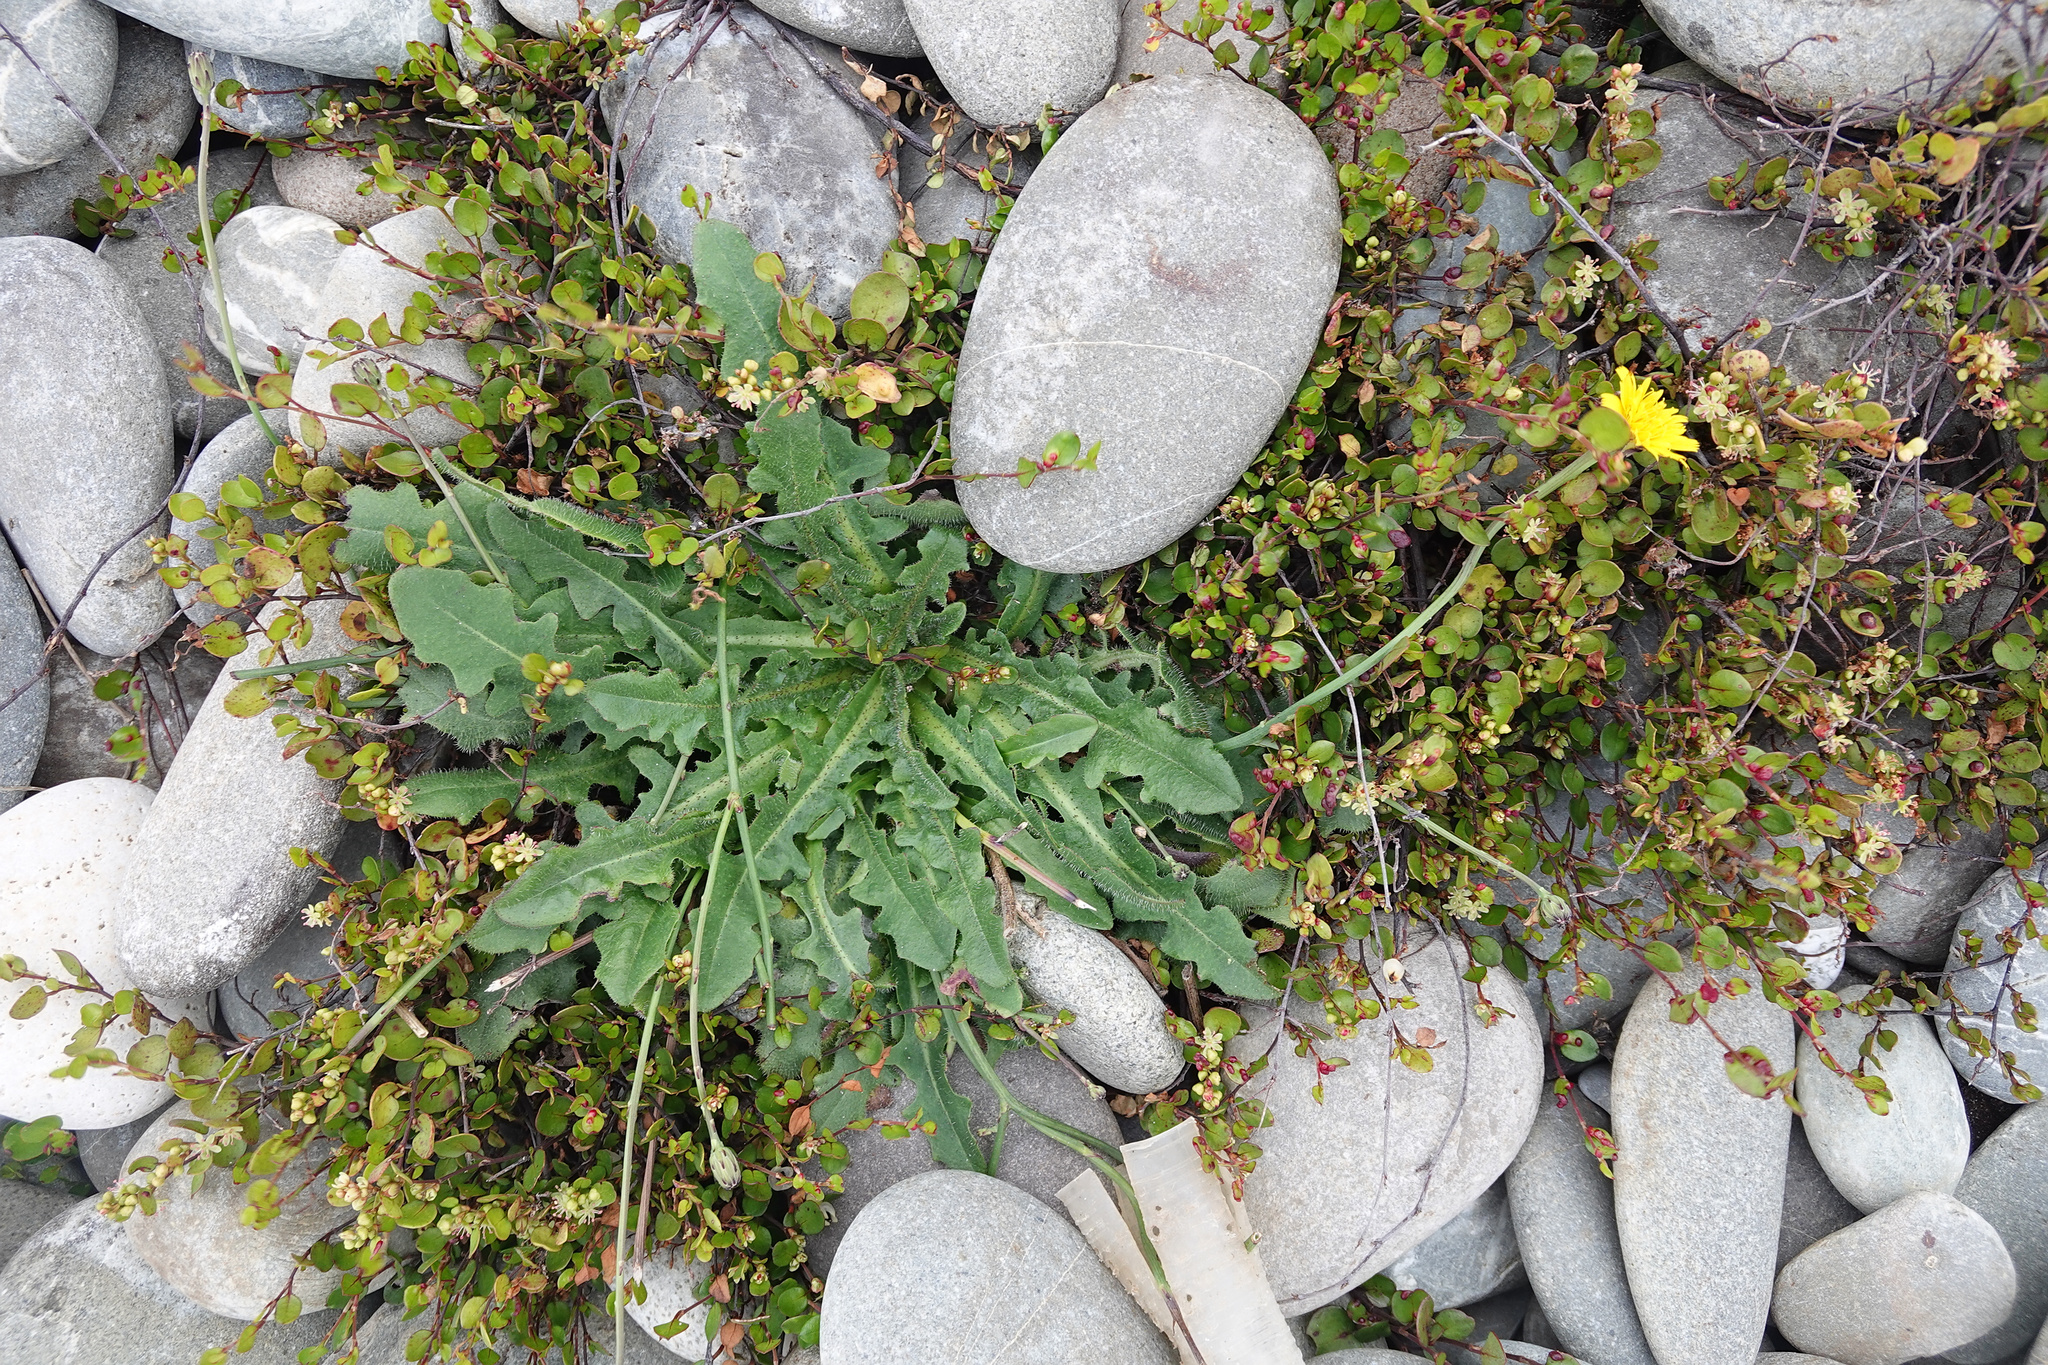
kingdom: Plantae
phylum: Tracheophyta
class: Magnoliopsida
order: Asterales
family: Asteraceae
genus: Hypochaeris
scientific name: Hypochaeris radicata
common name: Flatweed
